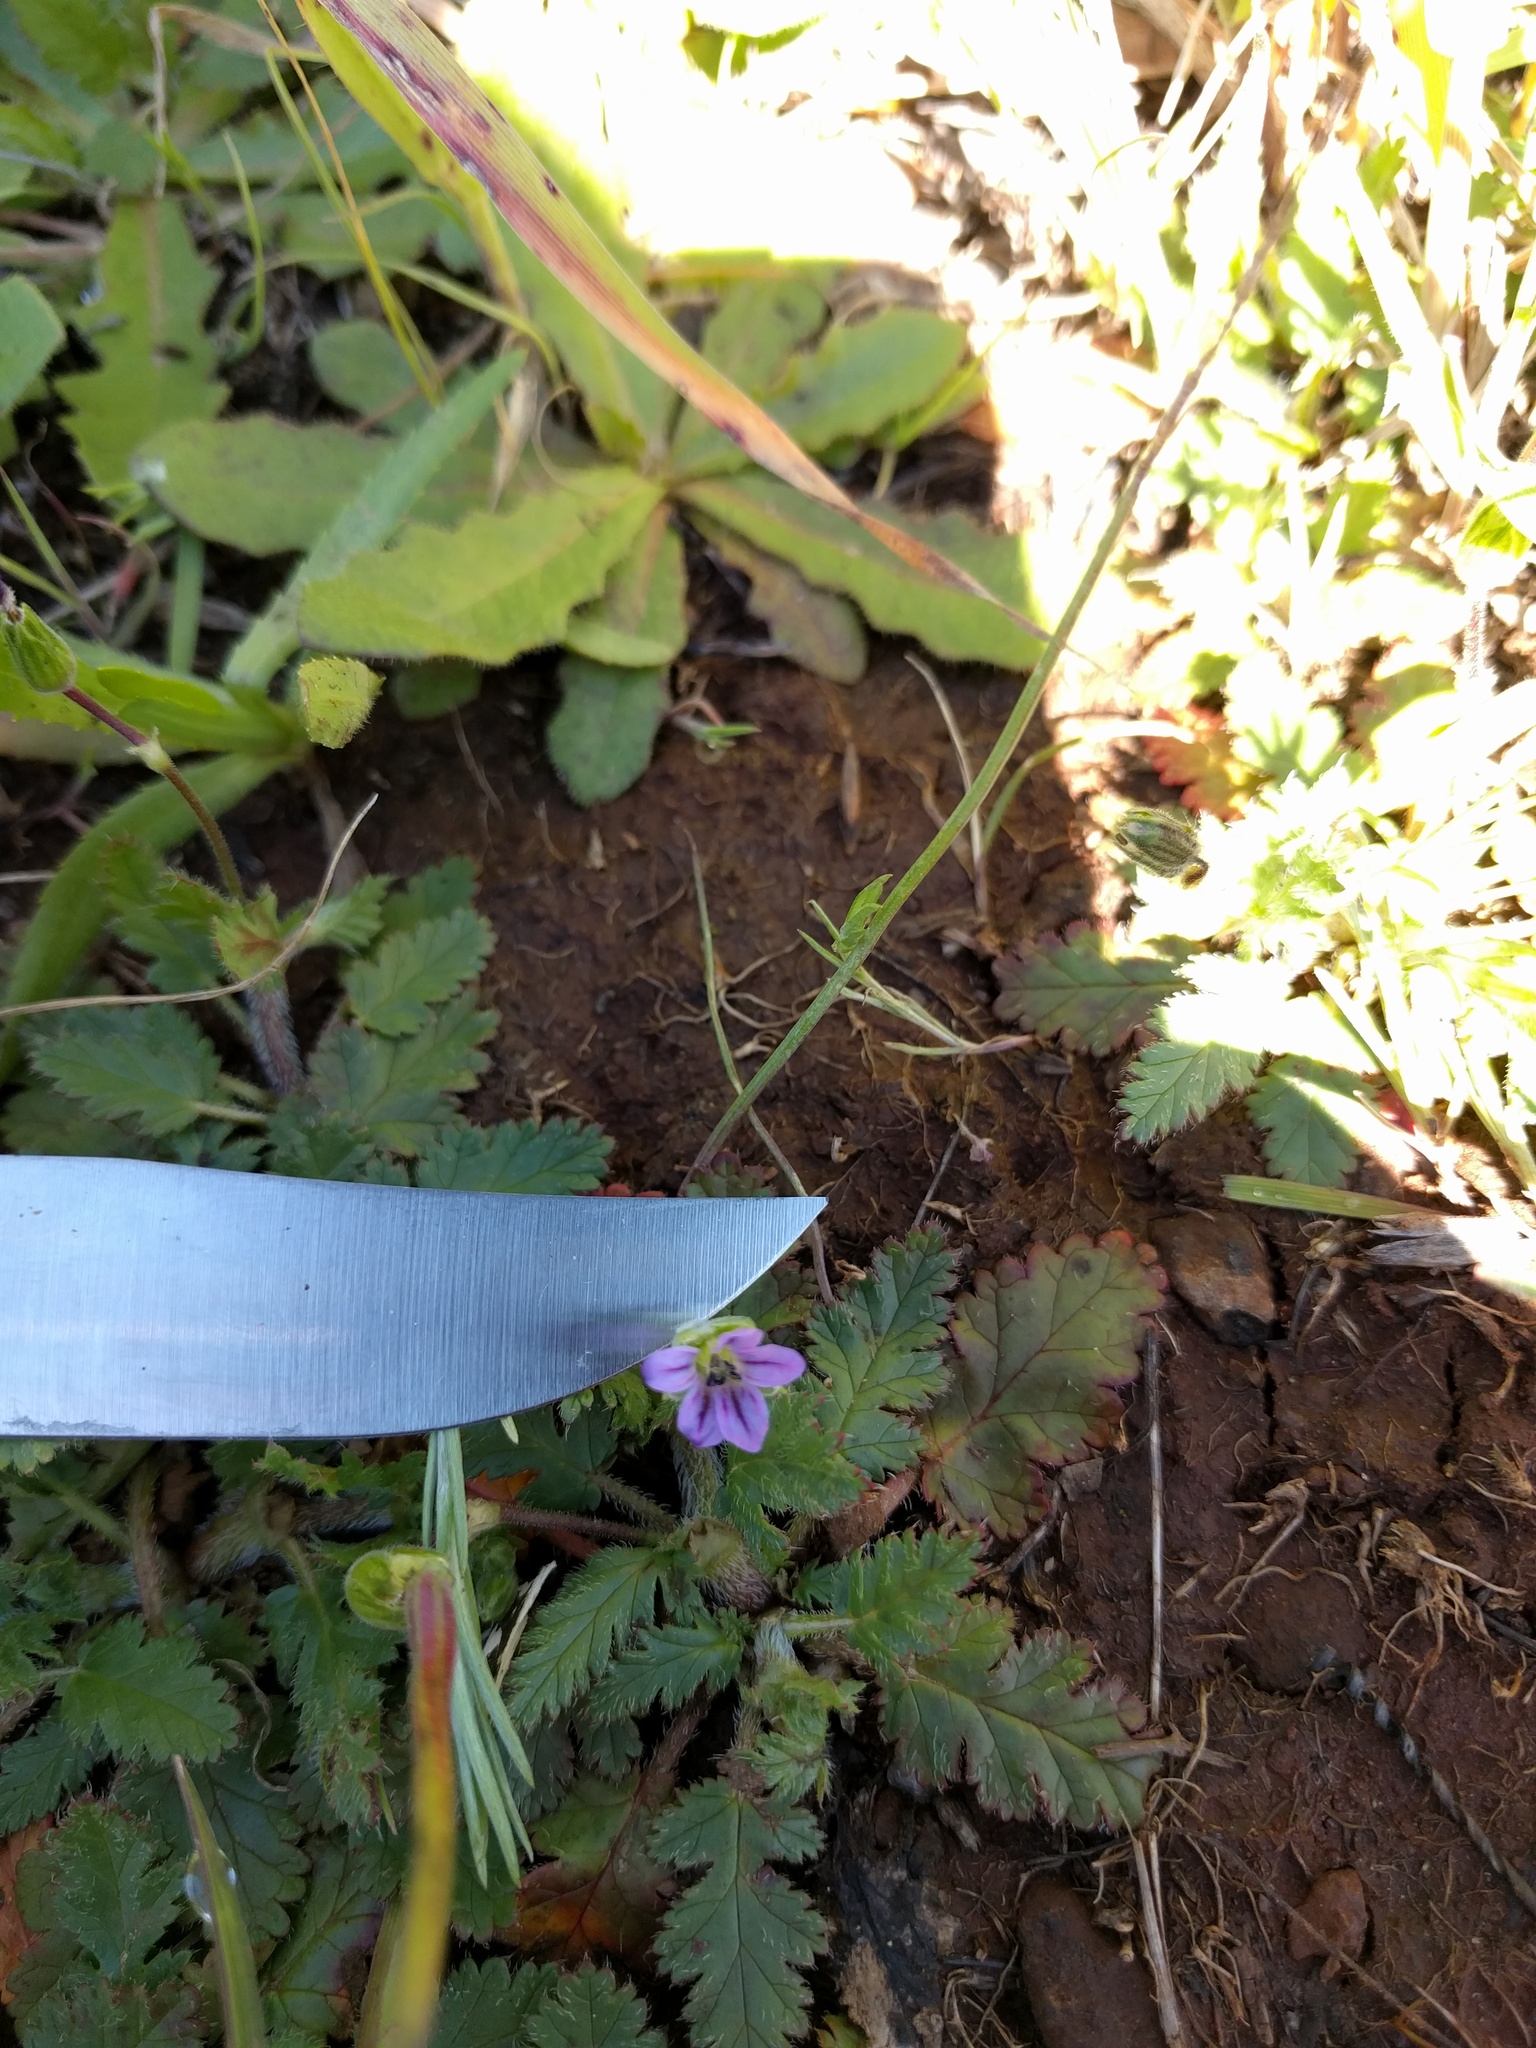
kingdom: Plantae
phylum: Tracheophyta
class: Magnoliopsida
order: Geraniales
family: Geraniaceae
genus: Erodium
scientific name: Erodium brachycarpum
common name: Hairy-pitted stork's-bill
